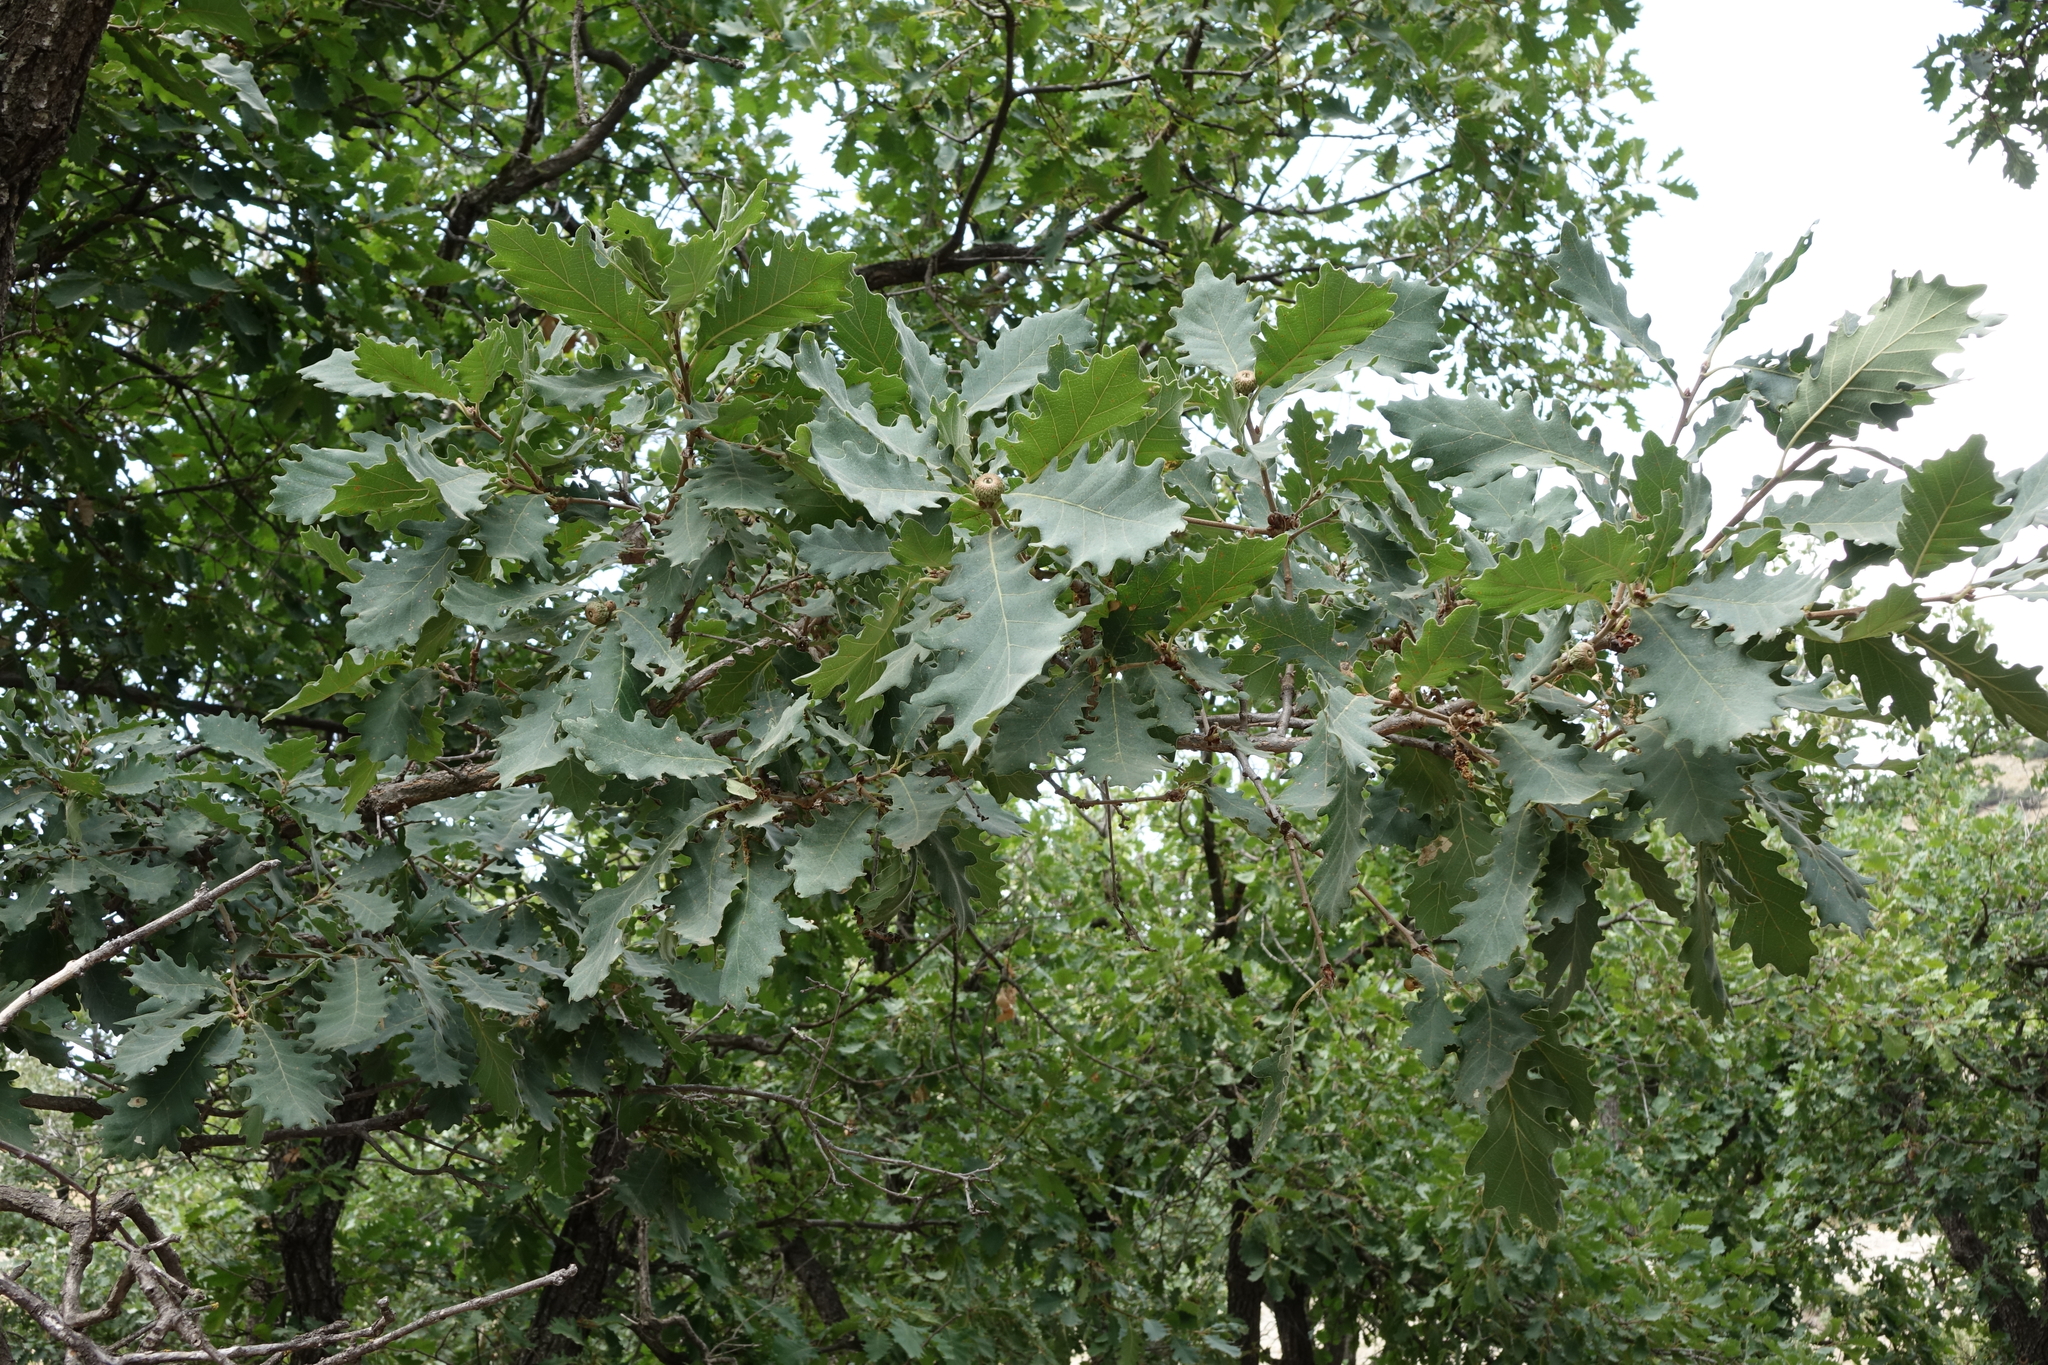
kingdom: Plantae
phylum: Tracheophyta
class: Magnoliopsida
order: Fagales
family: Fagaceae
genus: Quercus
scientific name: Quercus petraea
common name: Sessile oak
